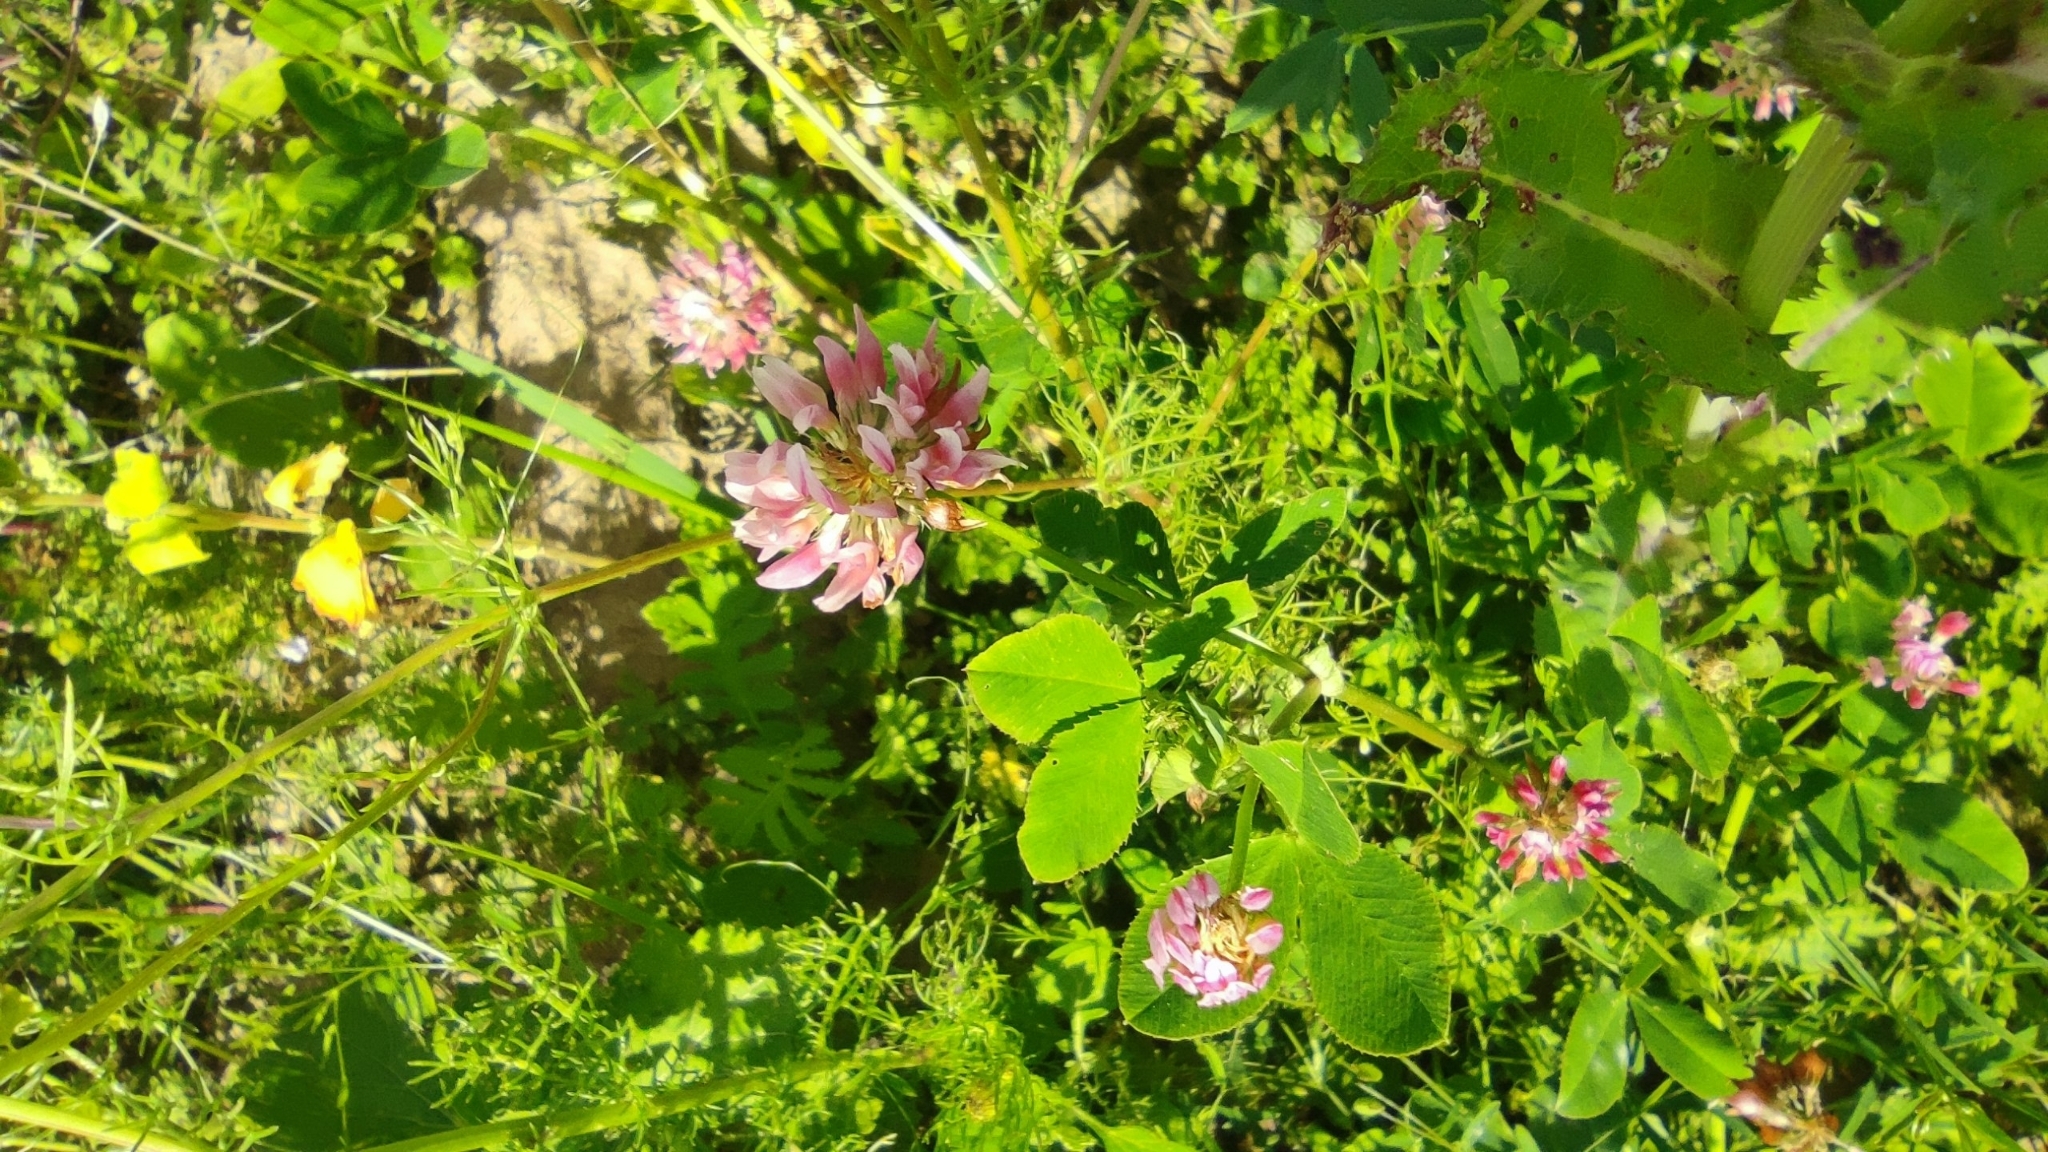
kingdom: Plantae
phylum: Tracheophyta
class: Magnoliopsida
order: Fabales
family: Fabaceae
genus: Trifolium
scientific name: Trifolium hybridum
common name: Alsike clover
